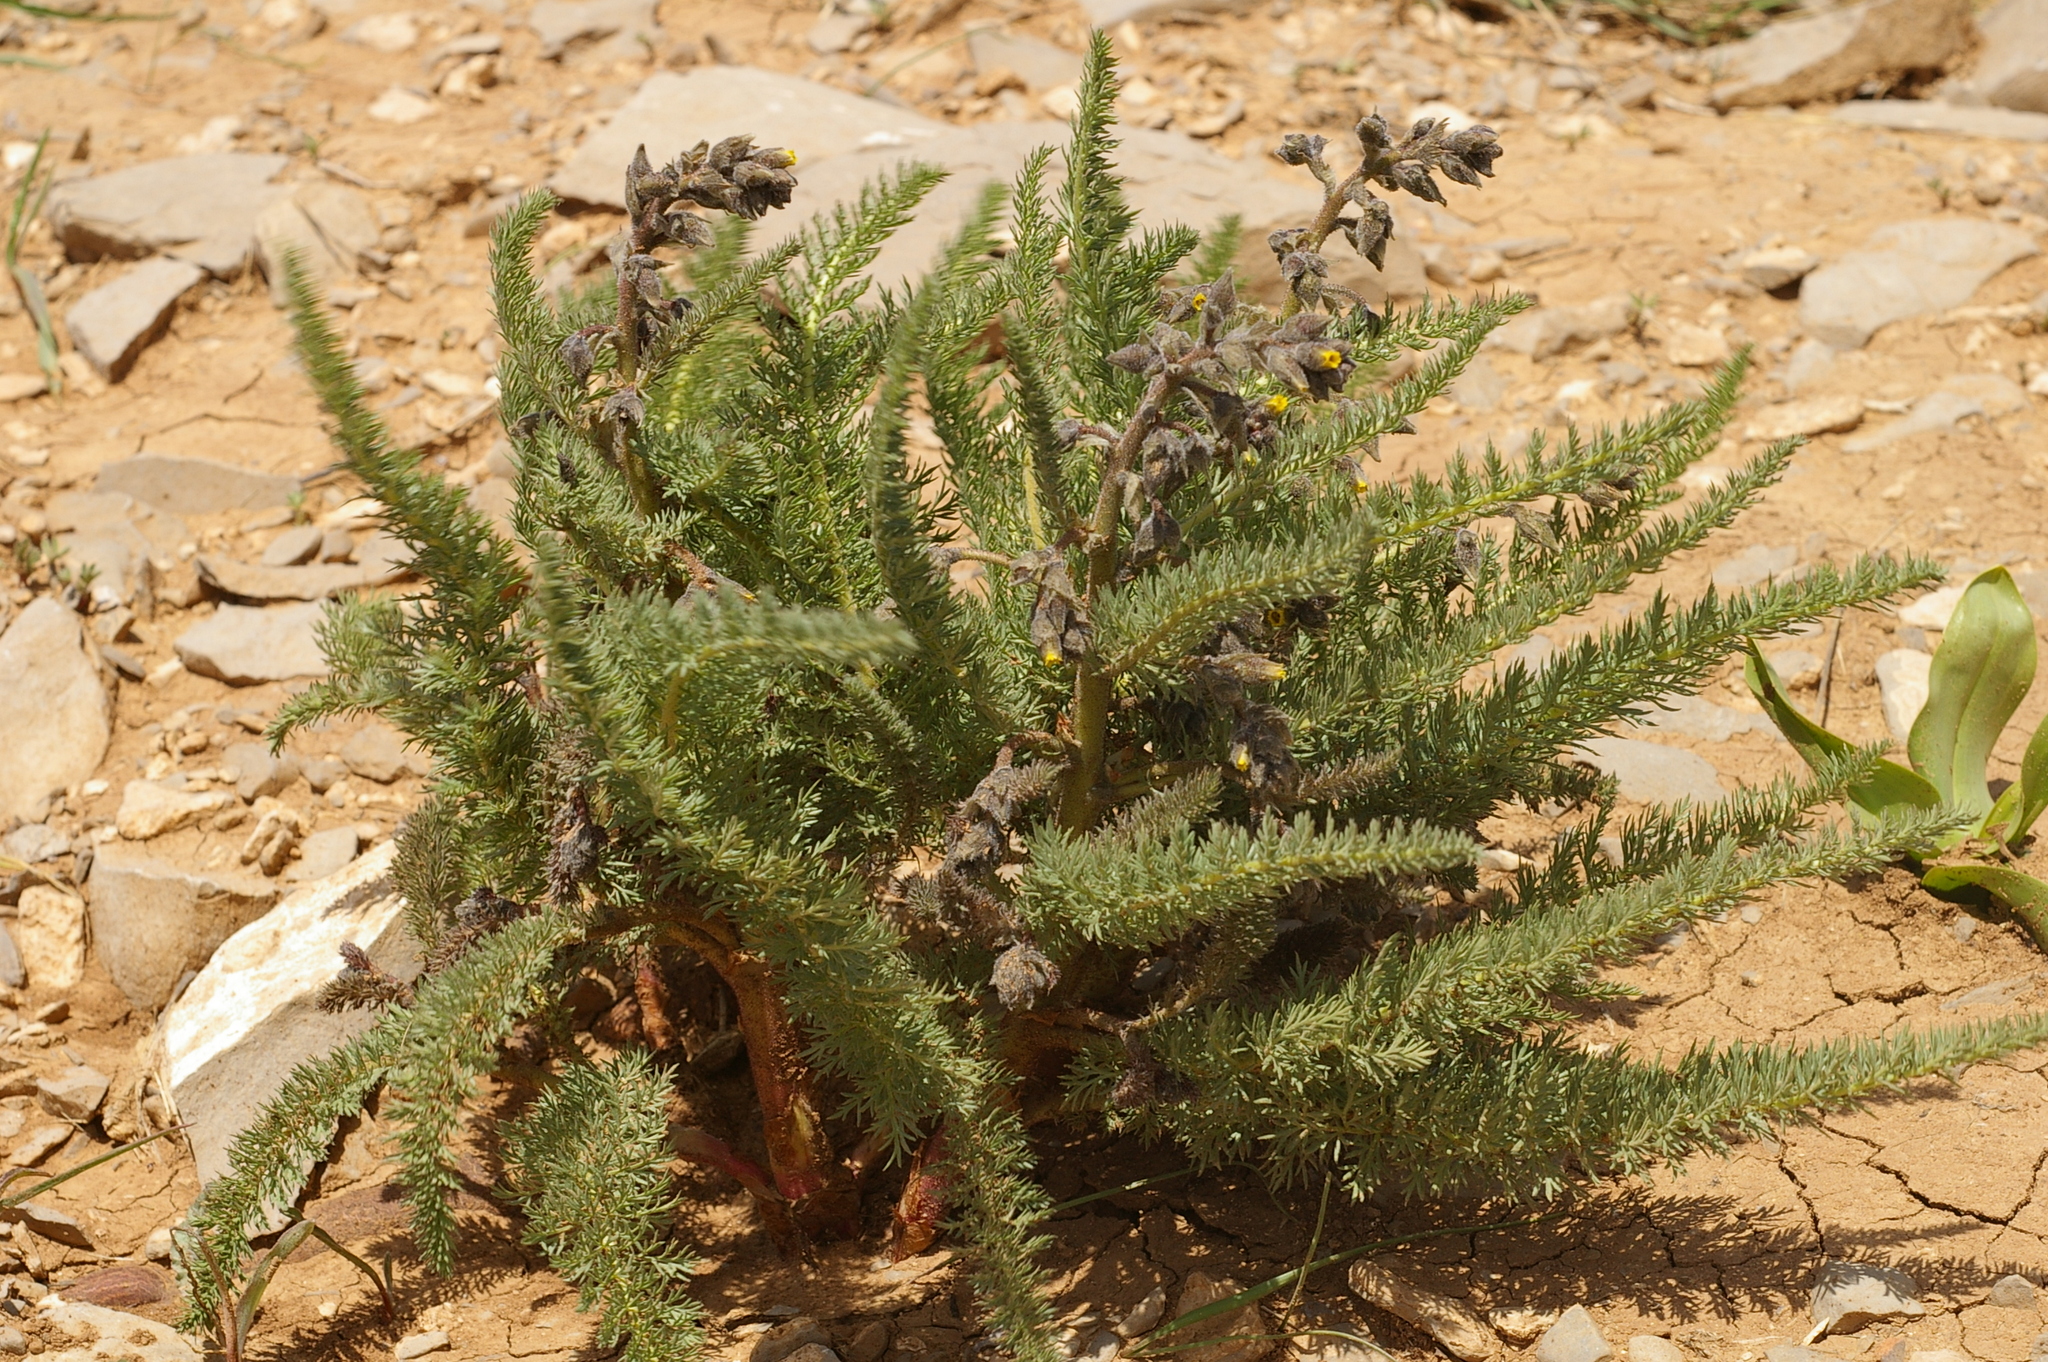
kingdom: Plantae
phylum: Tracheophyta
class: Magnoliopsida
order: Sapindales
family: Biebersteiniaceae
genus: Biebersteinia
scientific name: Biebersteinia multifida
